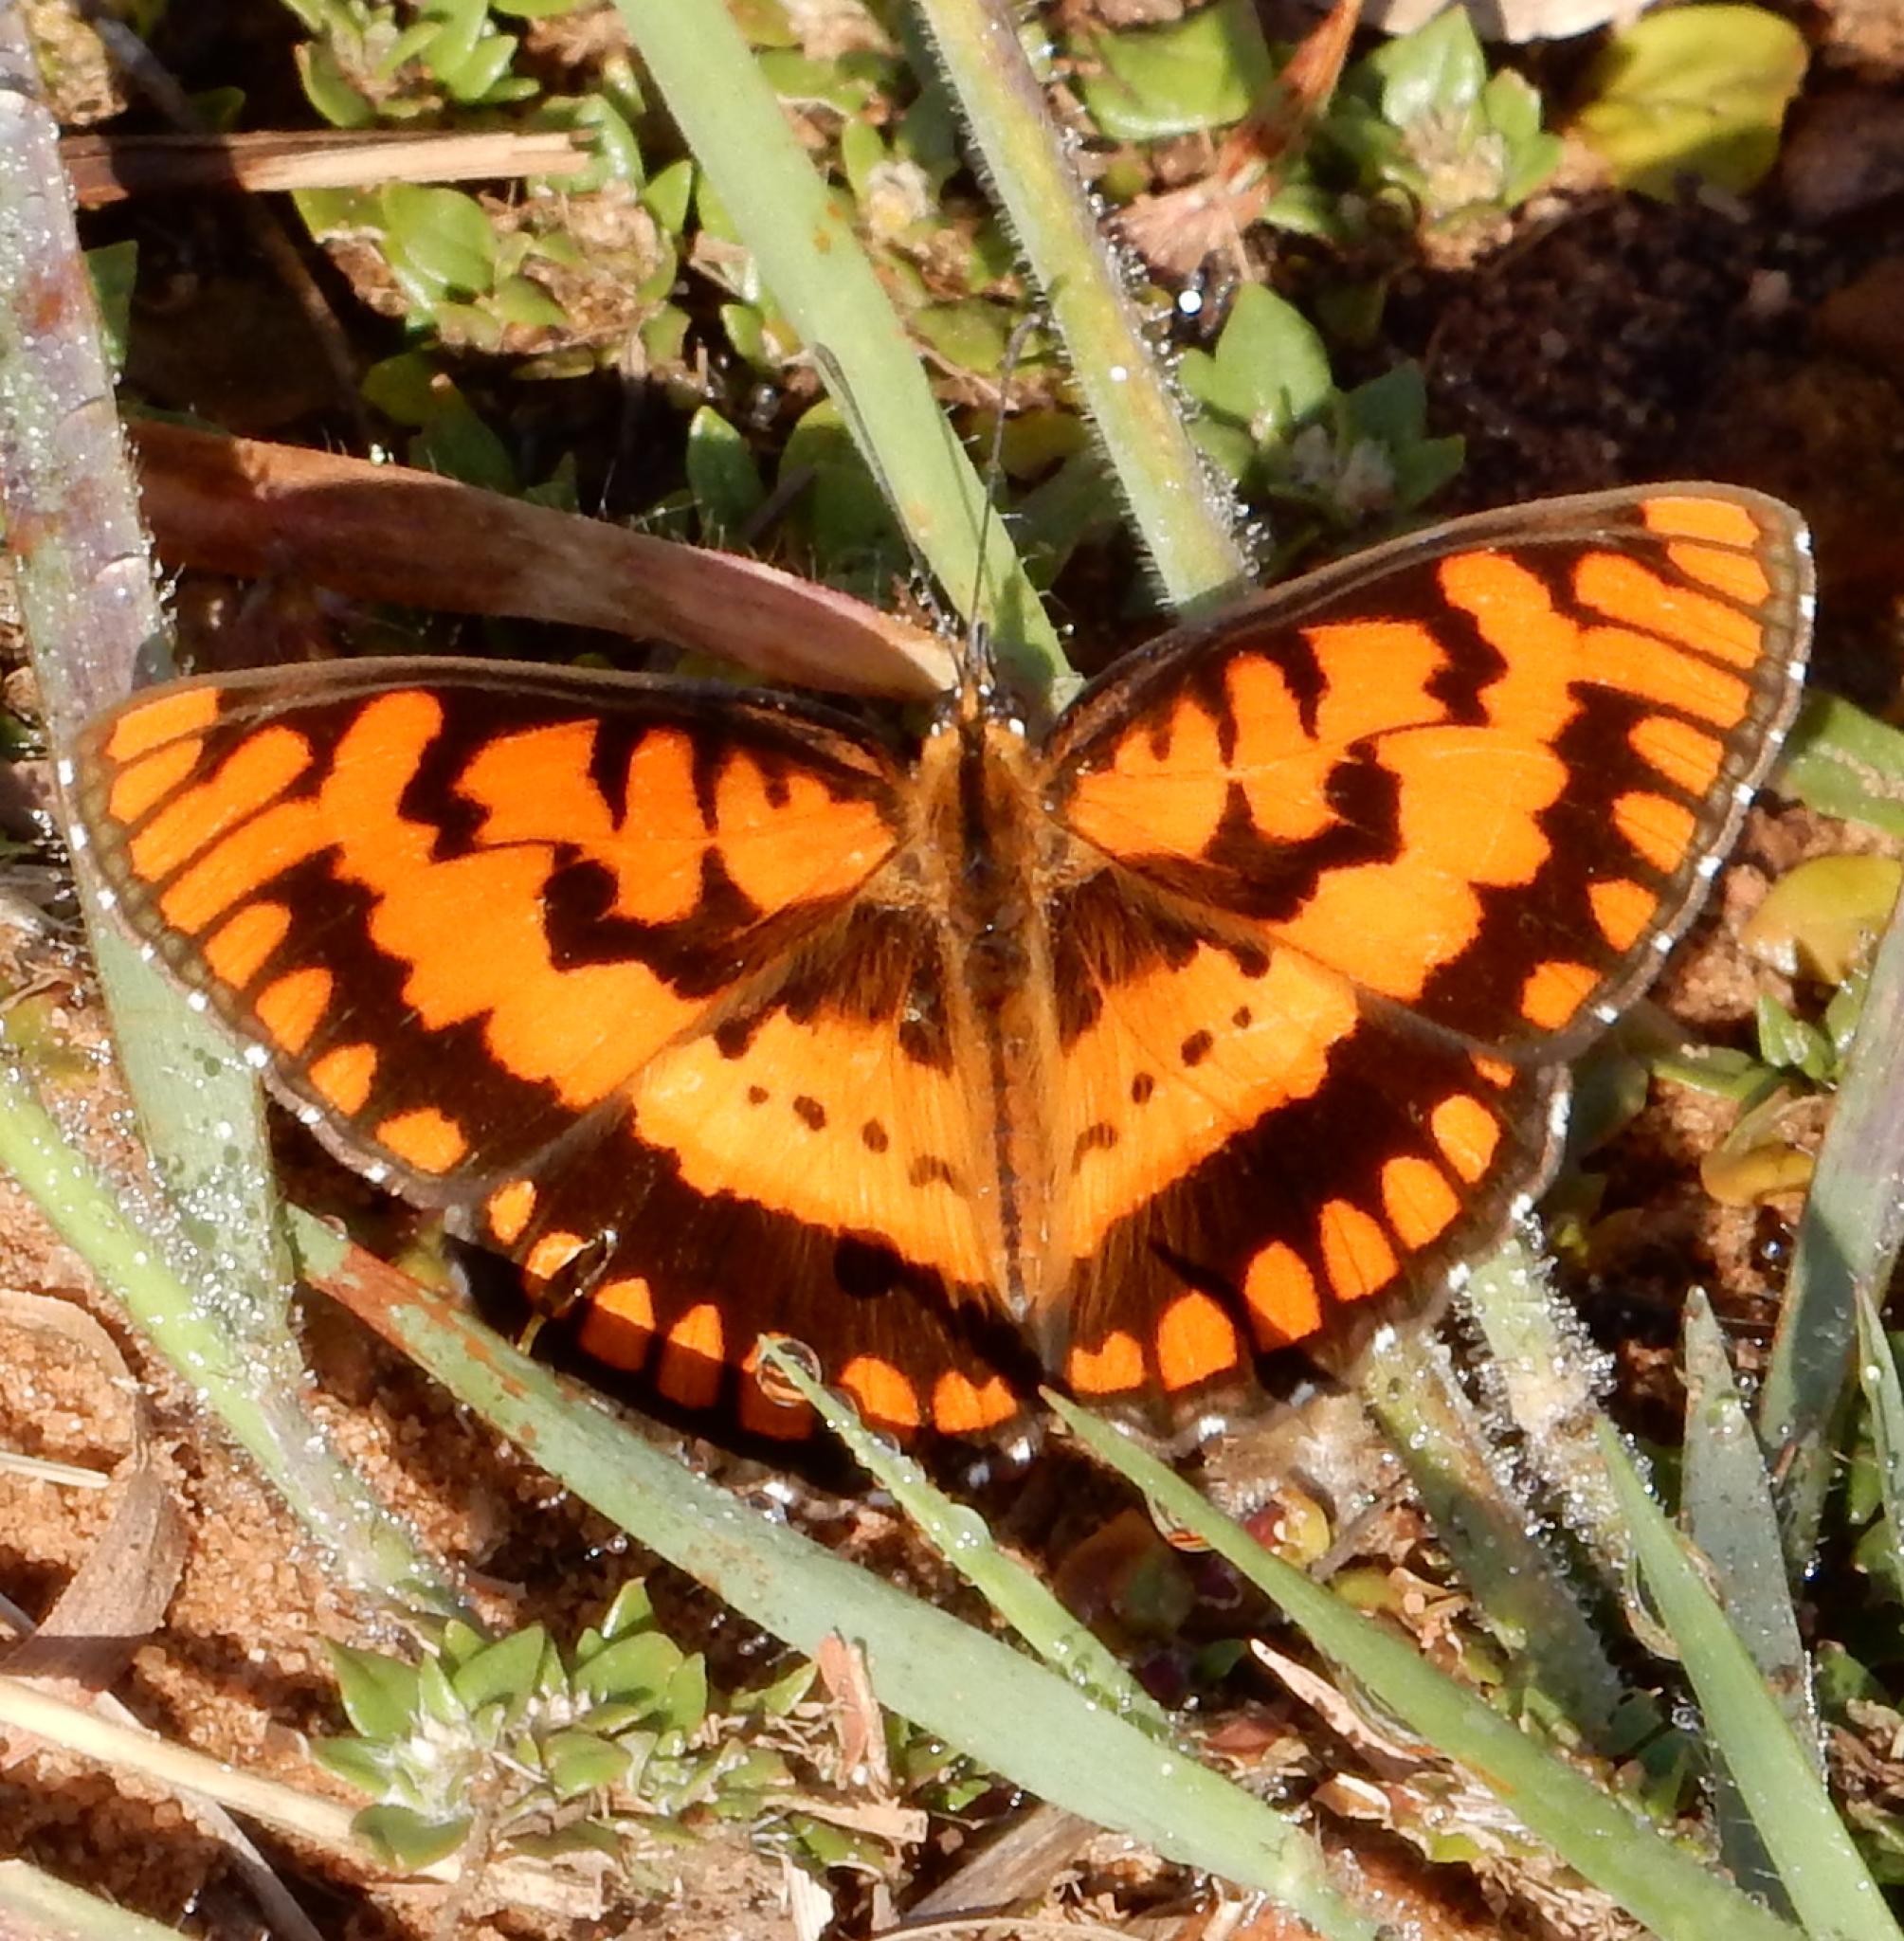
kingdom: Animalia
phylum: Arthropoda
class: Insecta
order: Lepidoptera
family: Nymphalidae
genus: Byblia
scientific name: Byblia ilithyia
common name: Spotted joker
